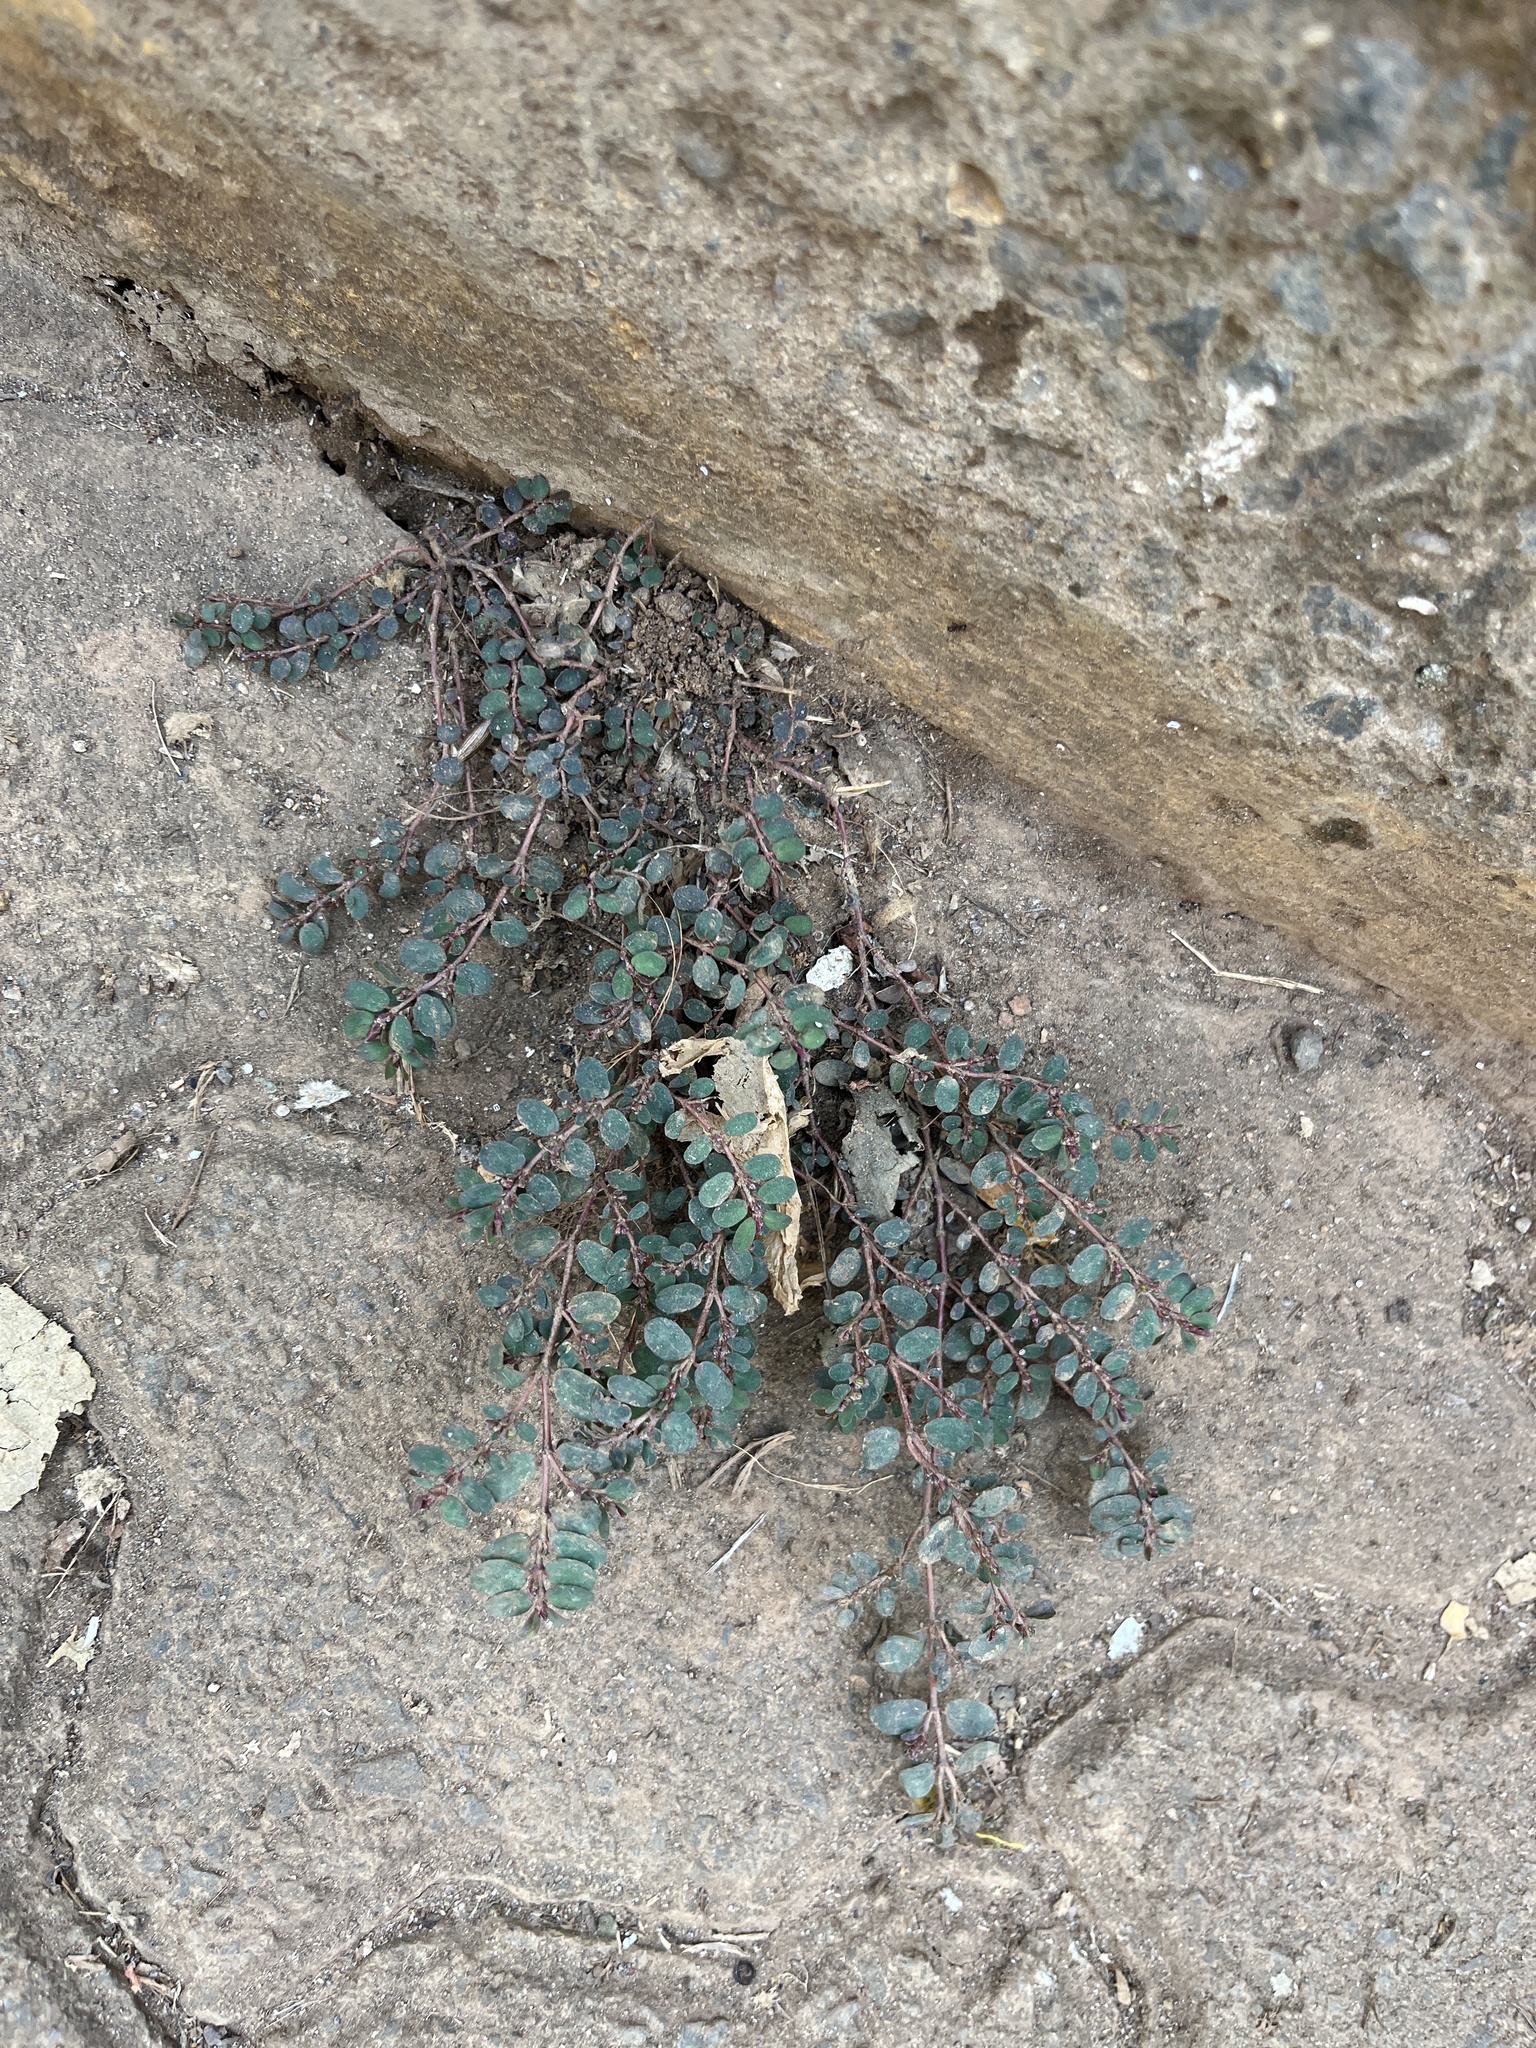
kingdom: Plantae
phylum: Tracheophyta
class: Magnoliopsida
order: Malpighiales
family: Euphorbiaceae
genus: Euphorbia
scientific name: Euphorbia prostrata
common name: Prostrate sandmat
